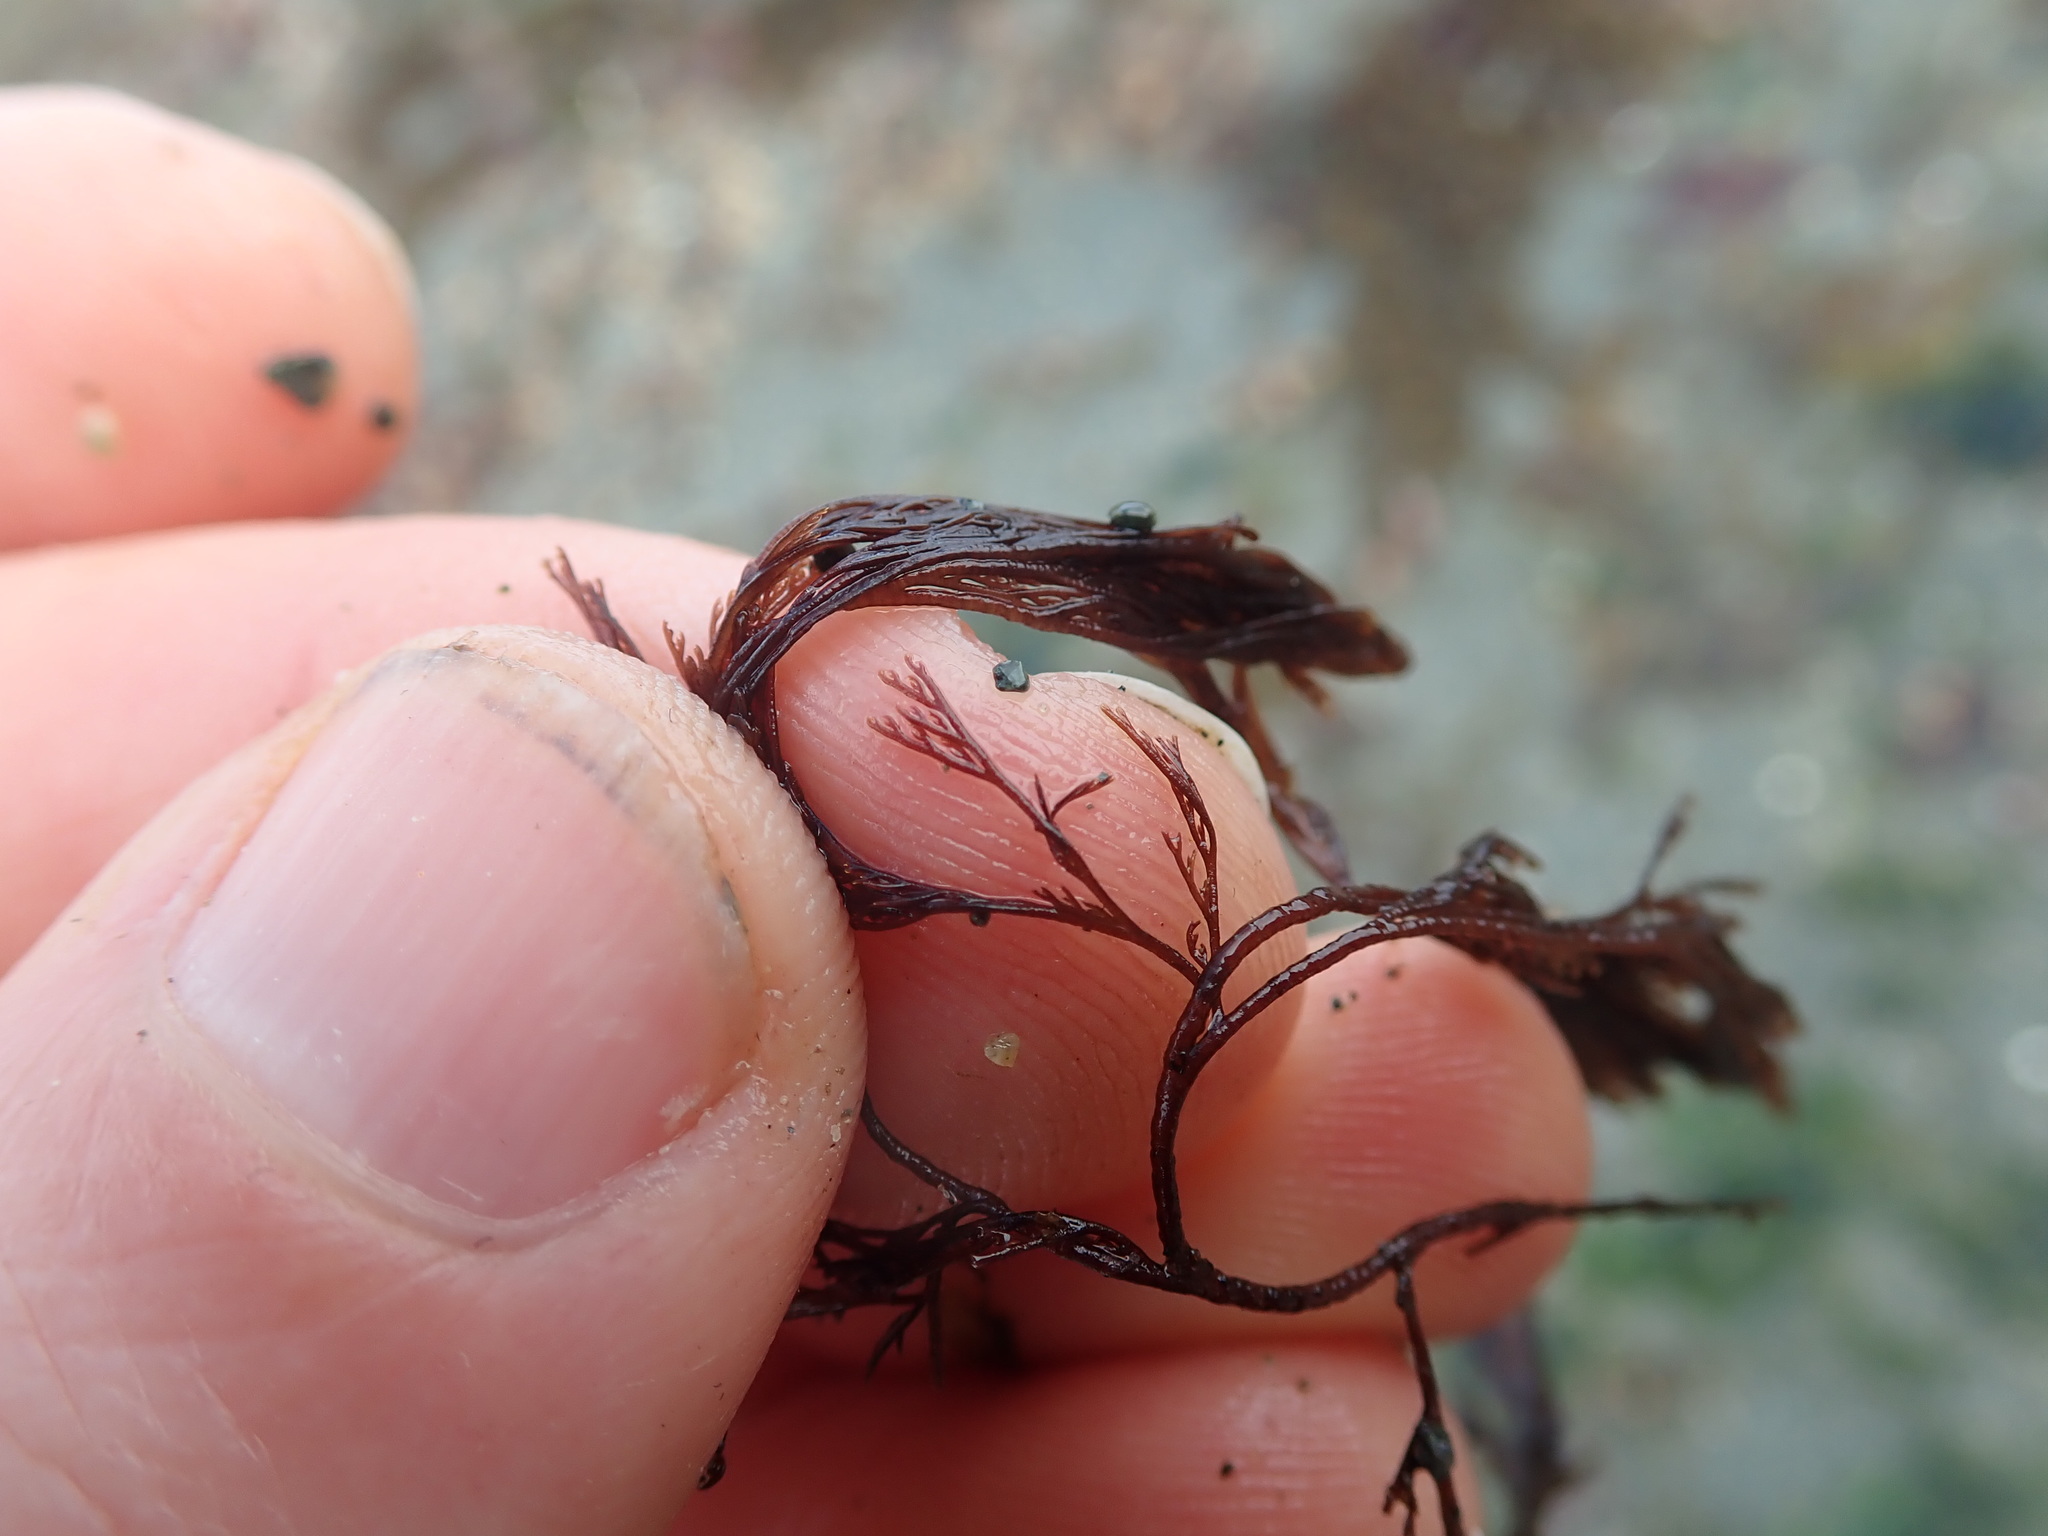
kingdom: Plantae
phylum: Rhodophyta
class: Florideophyceae
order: Ceramiales
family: Ceramiaceae
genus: Microcladia
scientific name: Microcladia borealis
